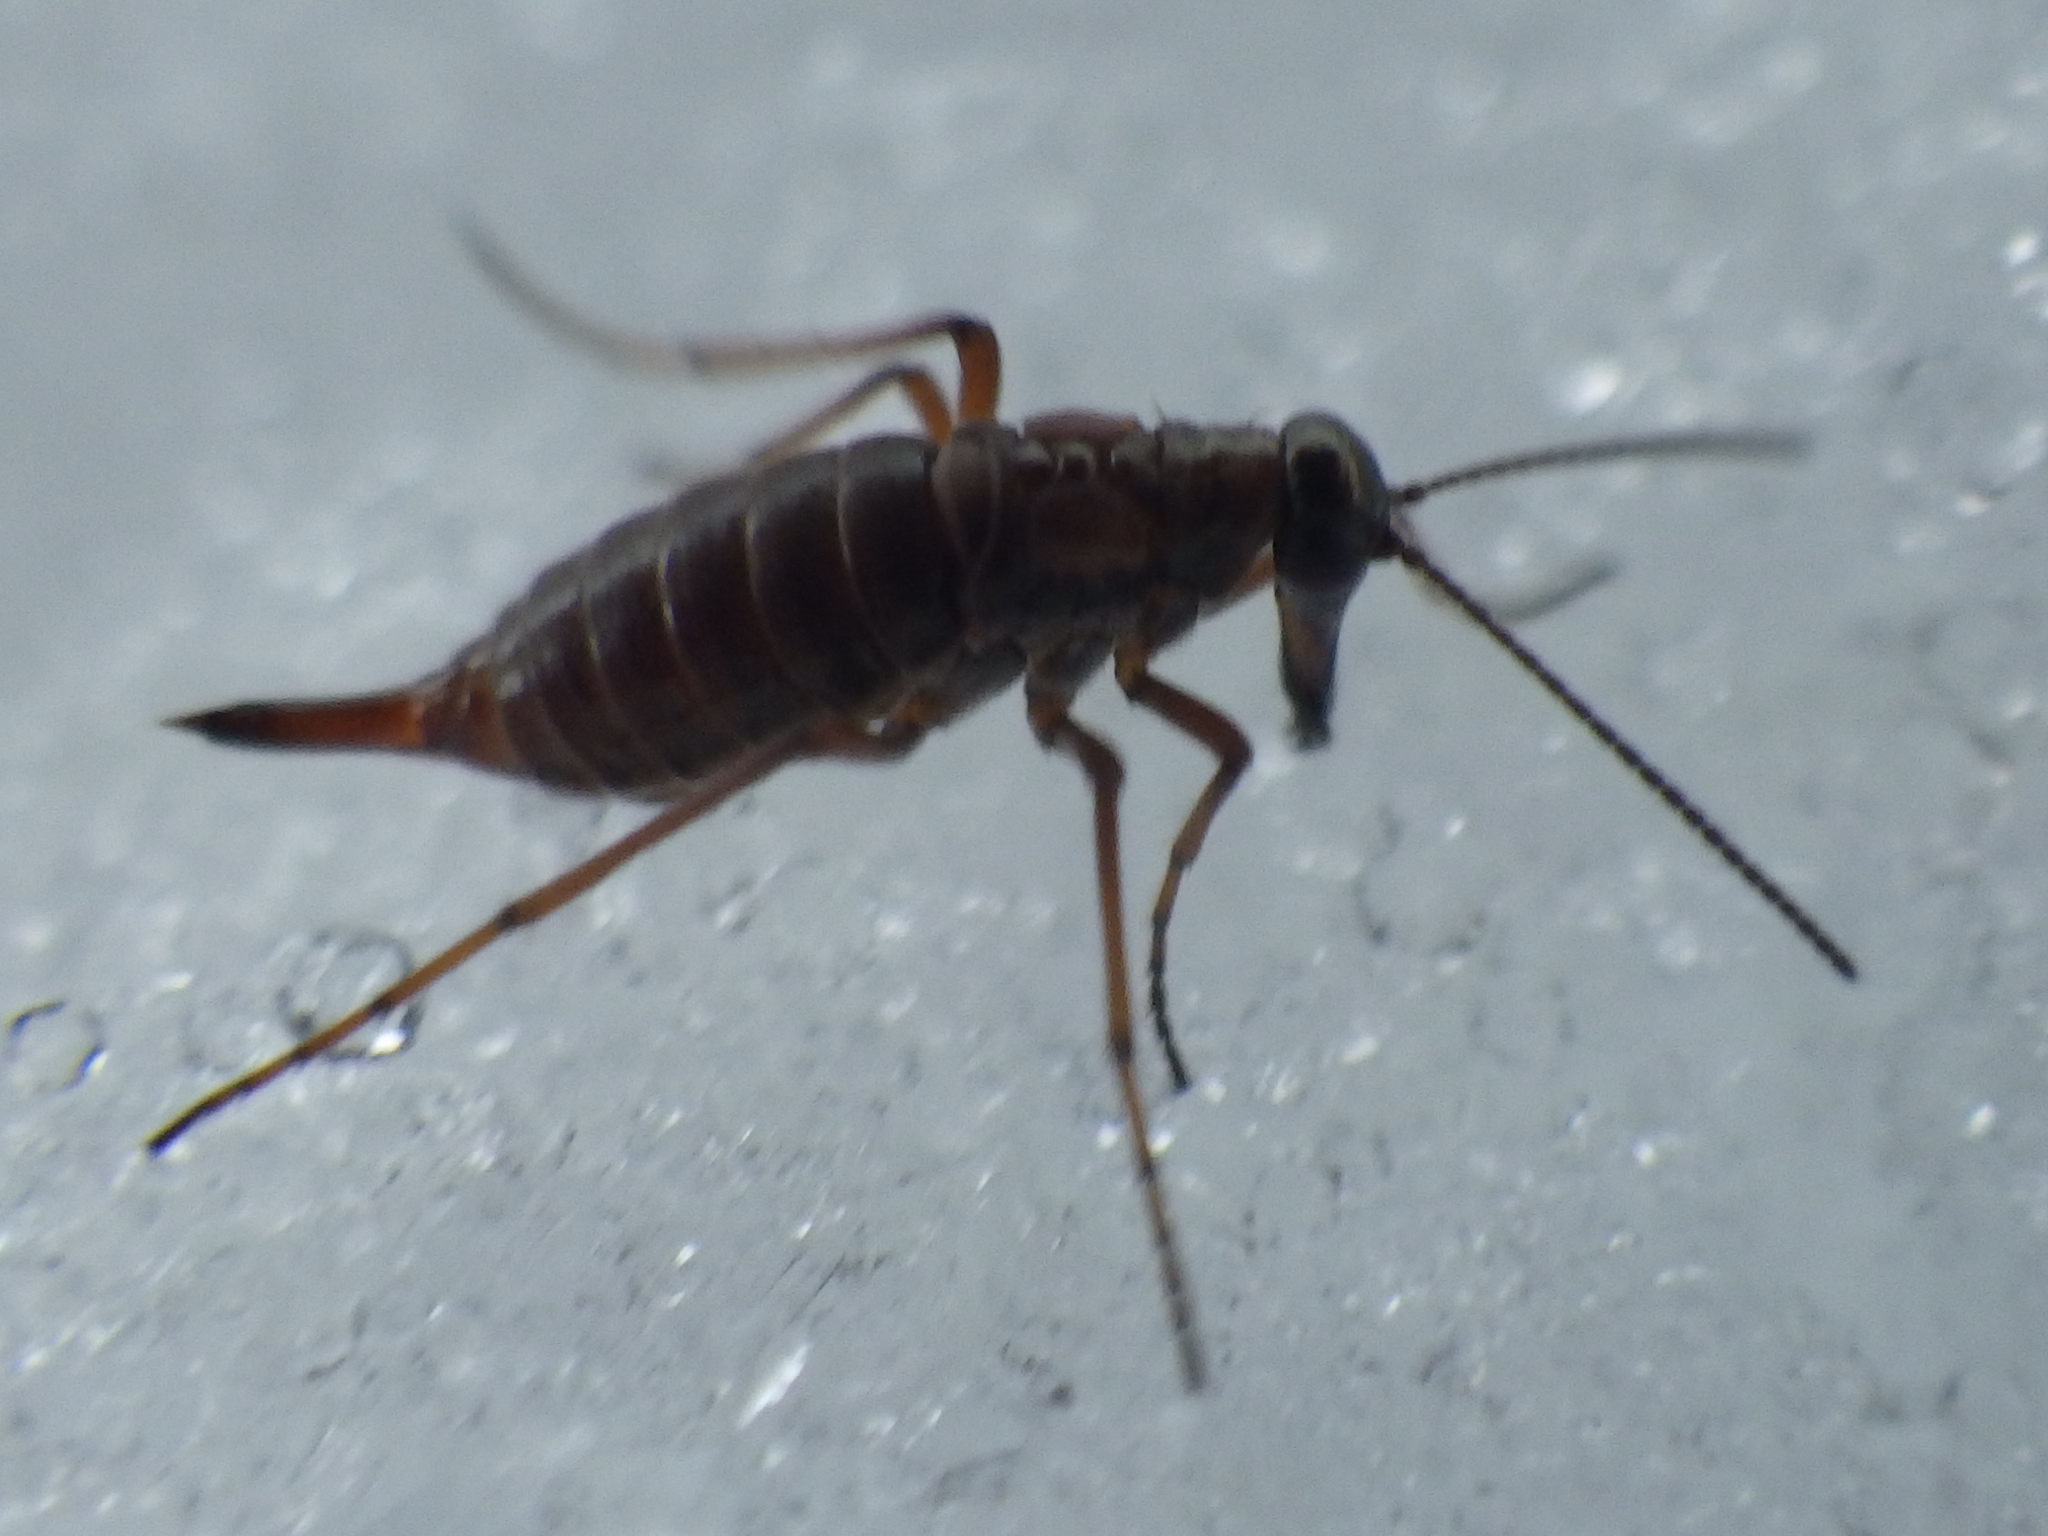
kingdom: Animalia
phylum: Arthropoda
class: Insecta
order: Mecoptera
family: Boreidae
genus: Boreus
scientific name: Boreus nivoriundus
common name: Snow-born boreus
